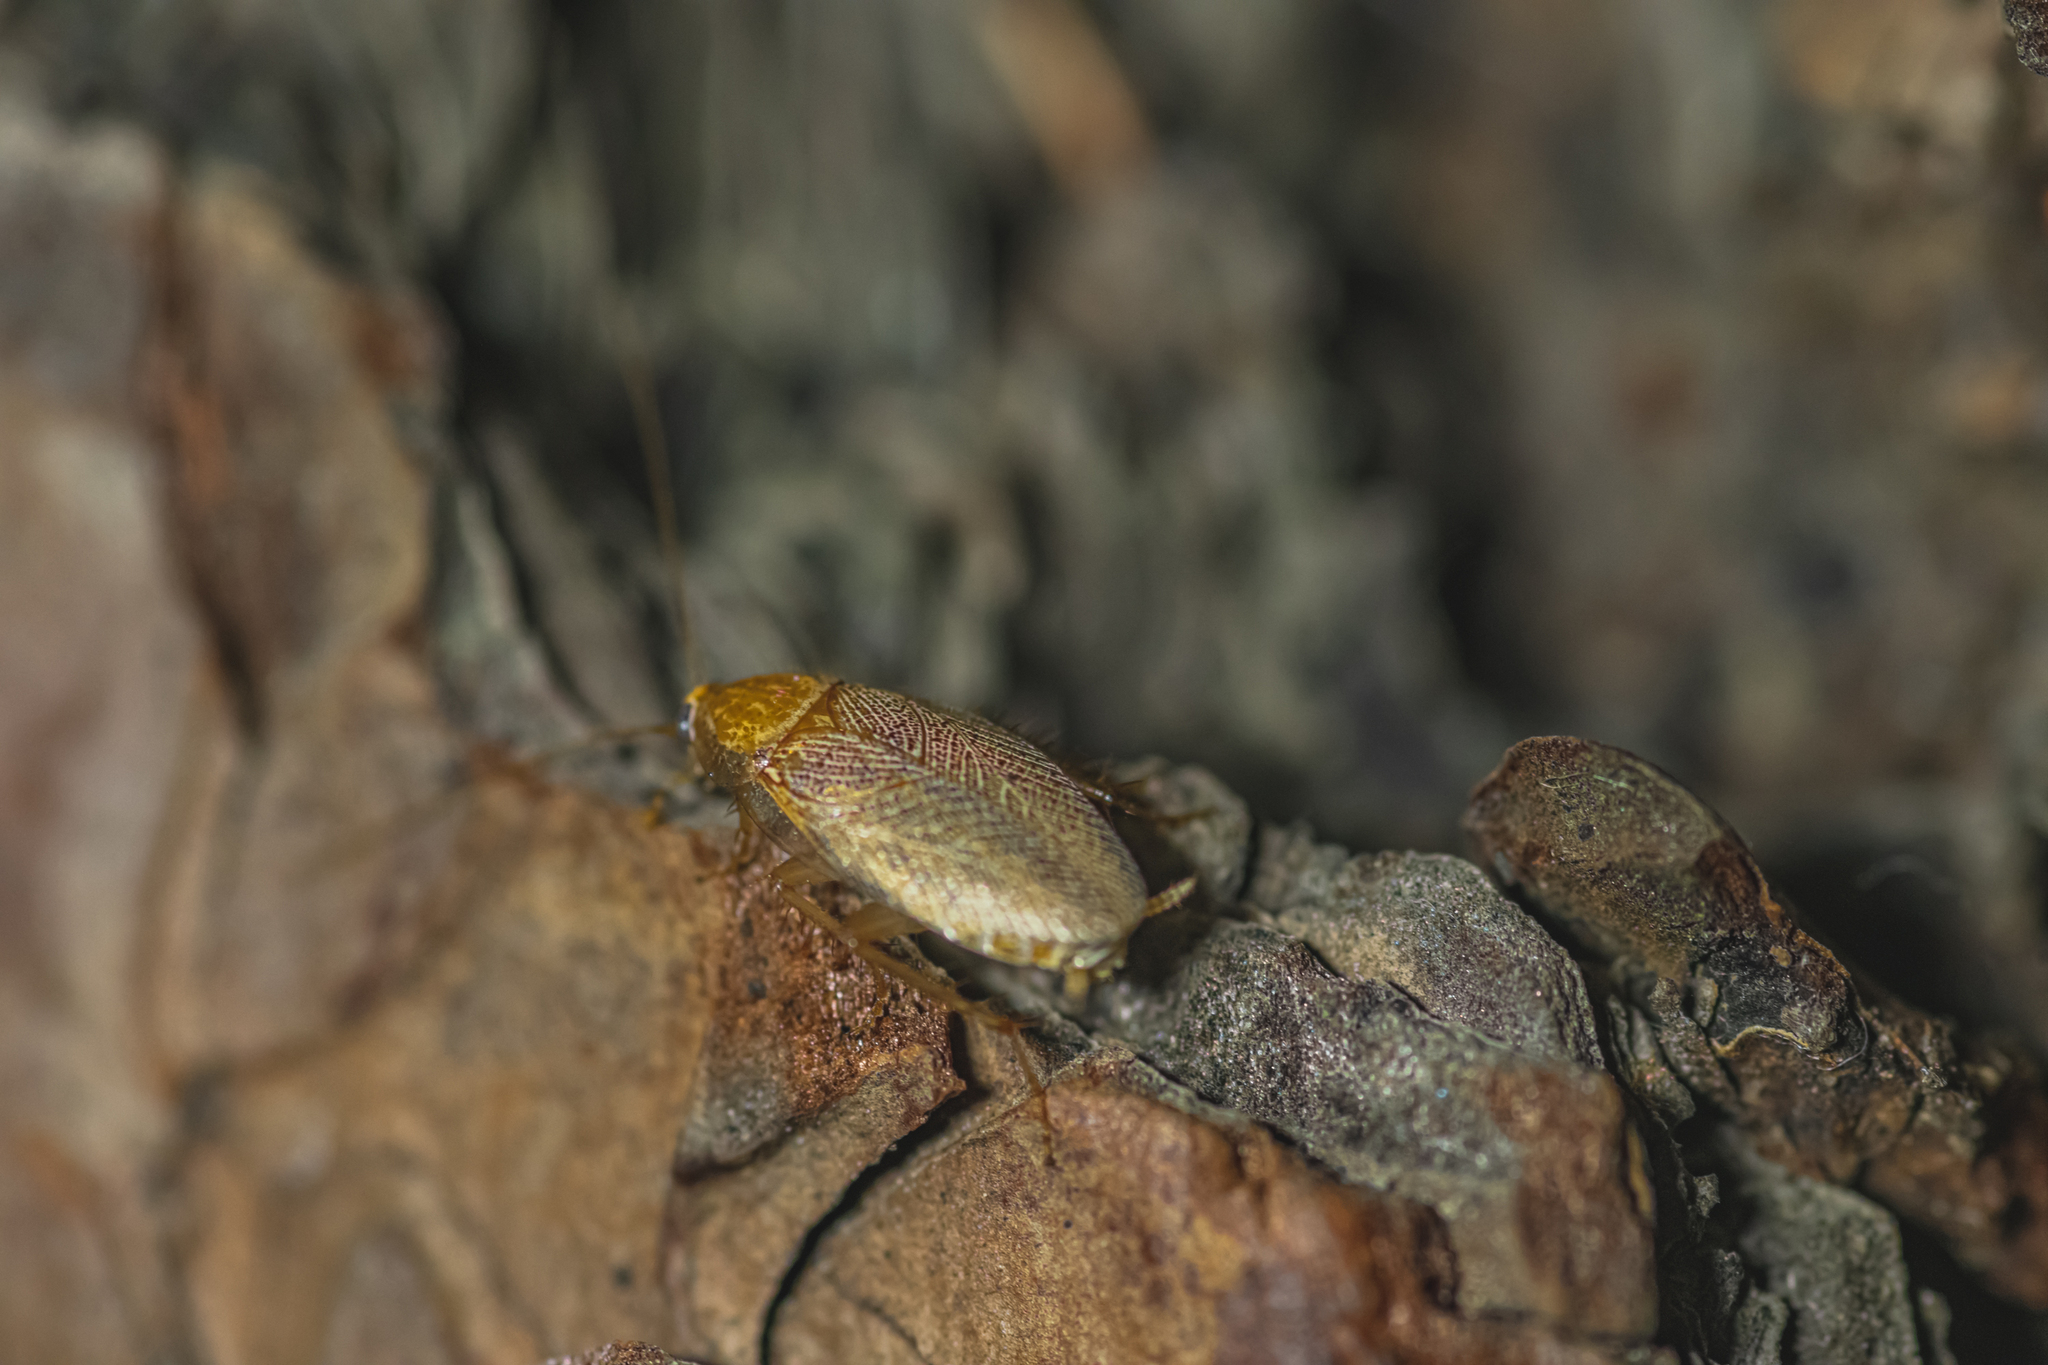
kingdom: Animalia
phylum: Arthropoda
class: Insecta
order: Blattodea
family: Ectobiidae
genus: Ectobius
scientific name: Ectobius erythronotus
